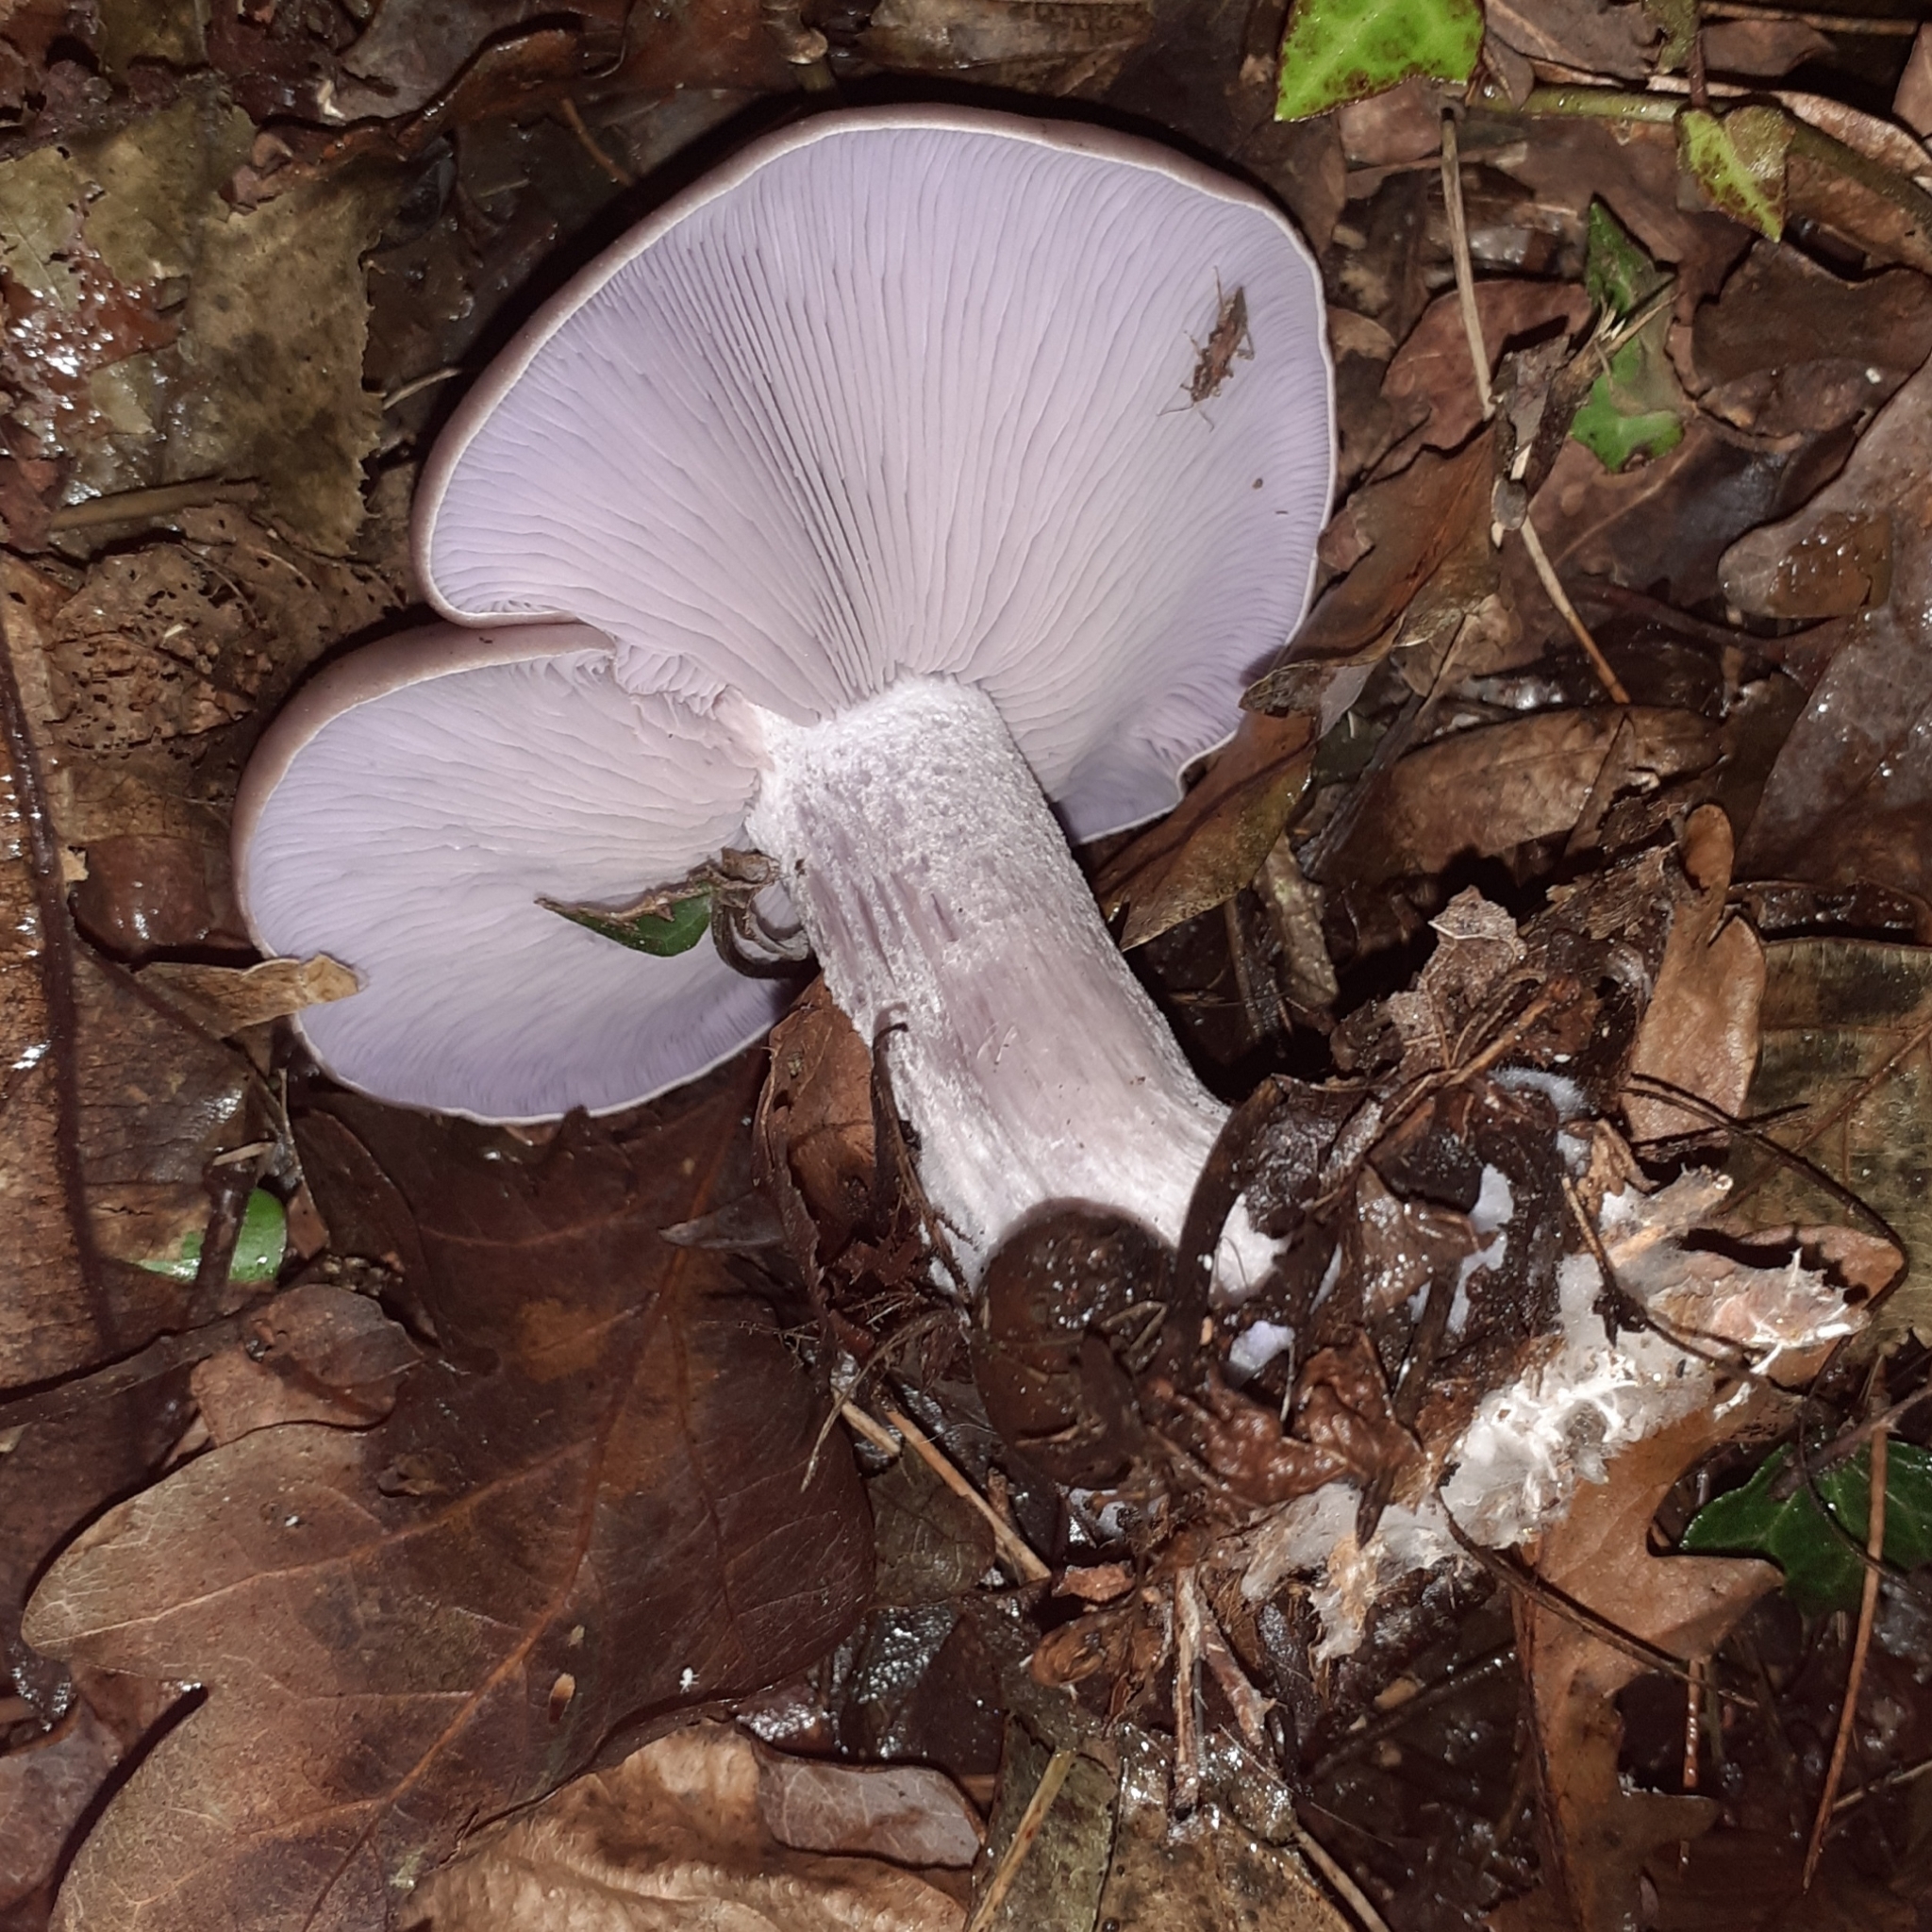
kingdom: Fungi
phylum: Basidiomycota
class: Agaricomycetes
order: Agaricales
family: Tricholomataceae
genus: Collybia
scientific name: Collybia
